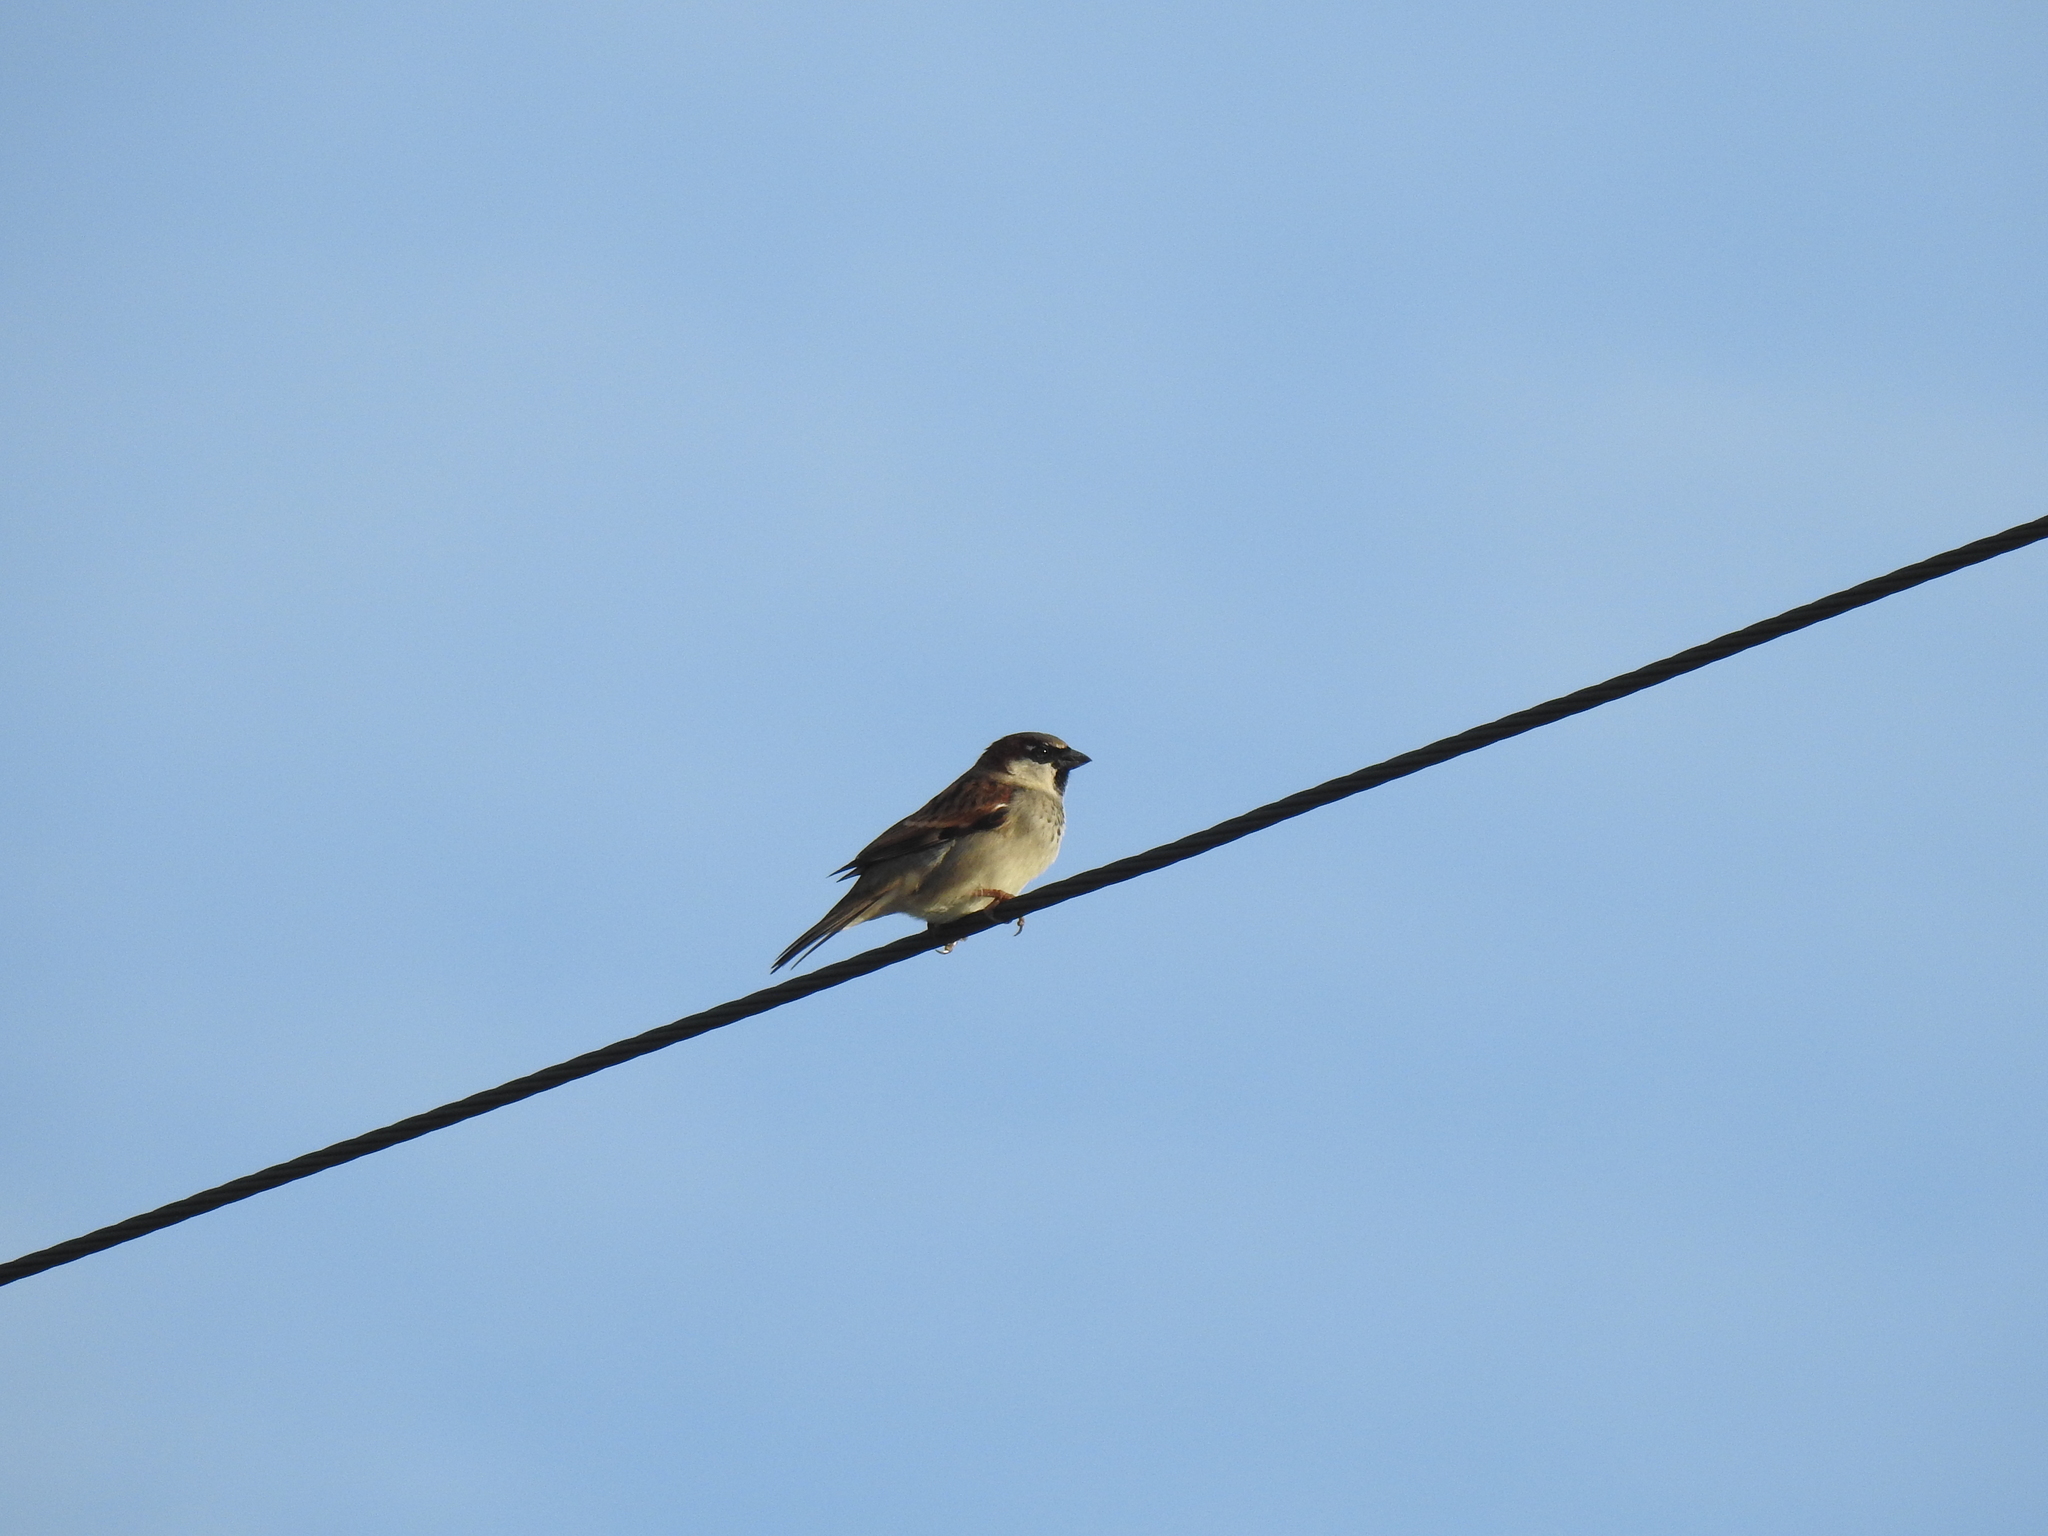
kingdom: Animalia
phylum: Chordata
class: Aves
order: Passeriformes
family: Passeridae
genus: Passer
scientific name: Passer domesticus
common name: House sparrow
